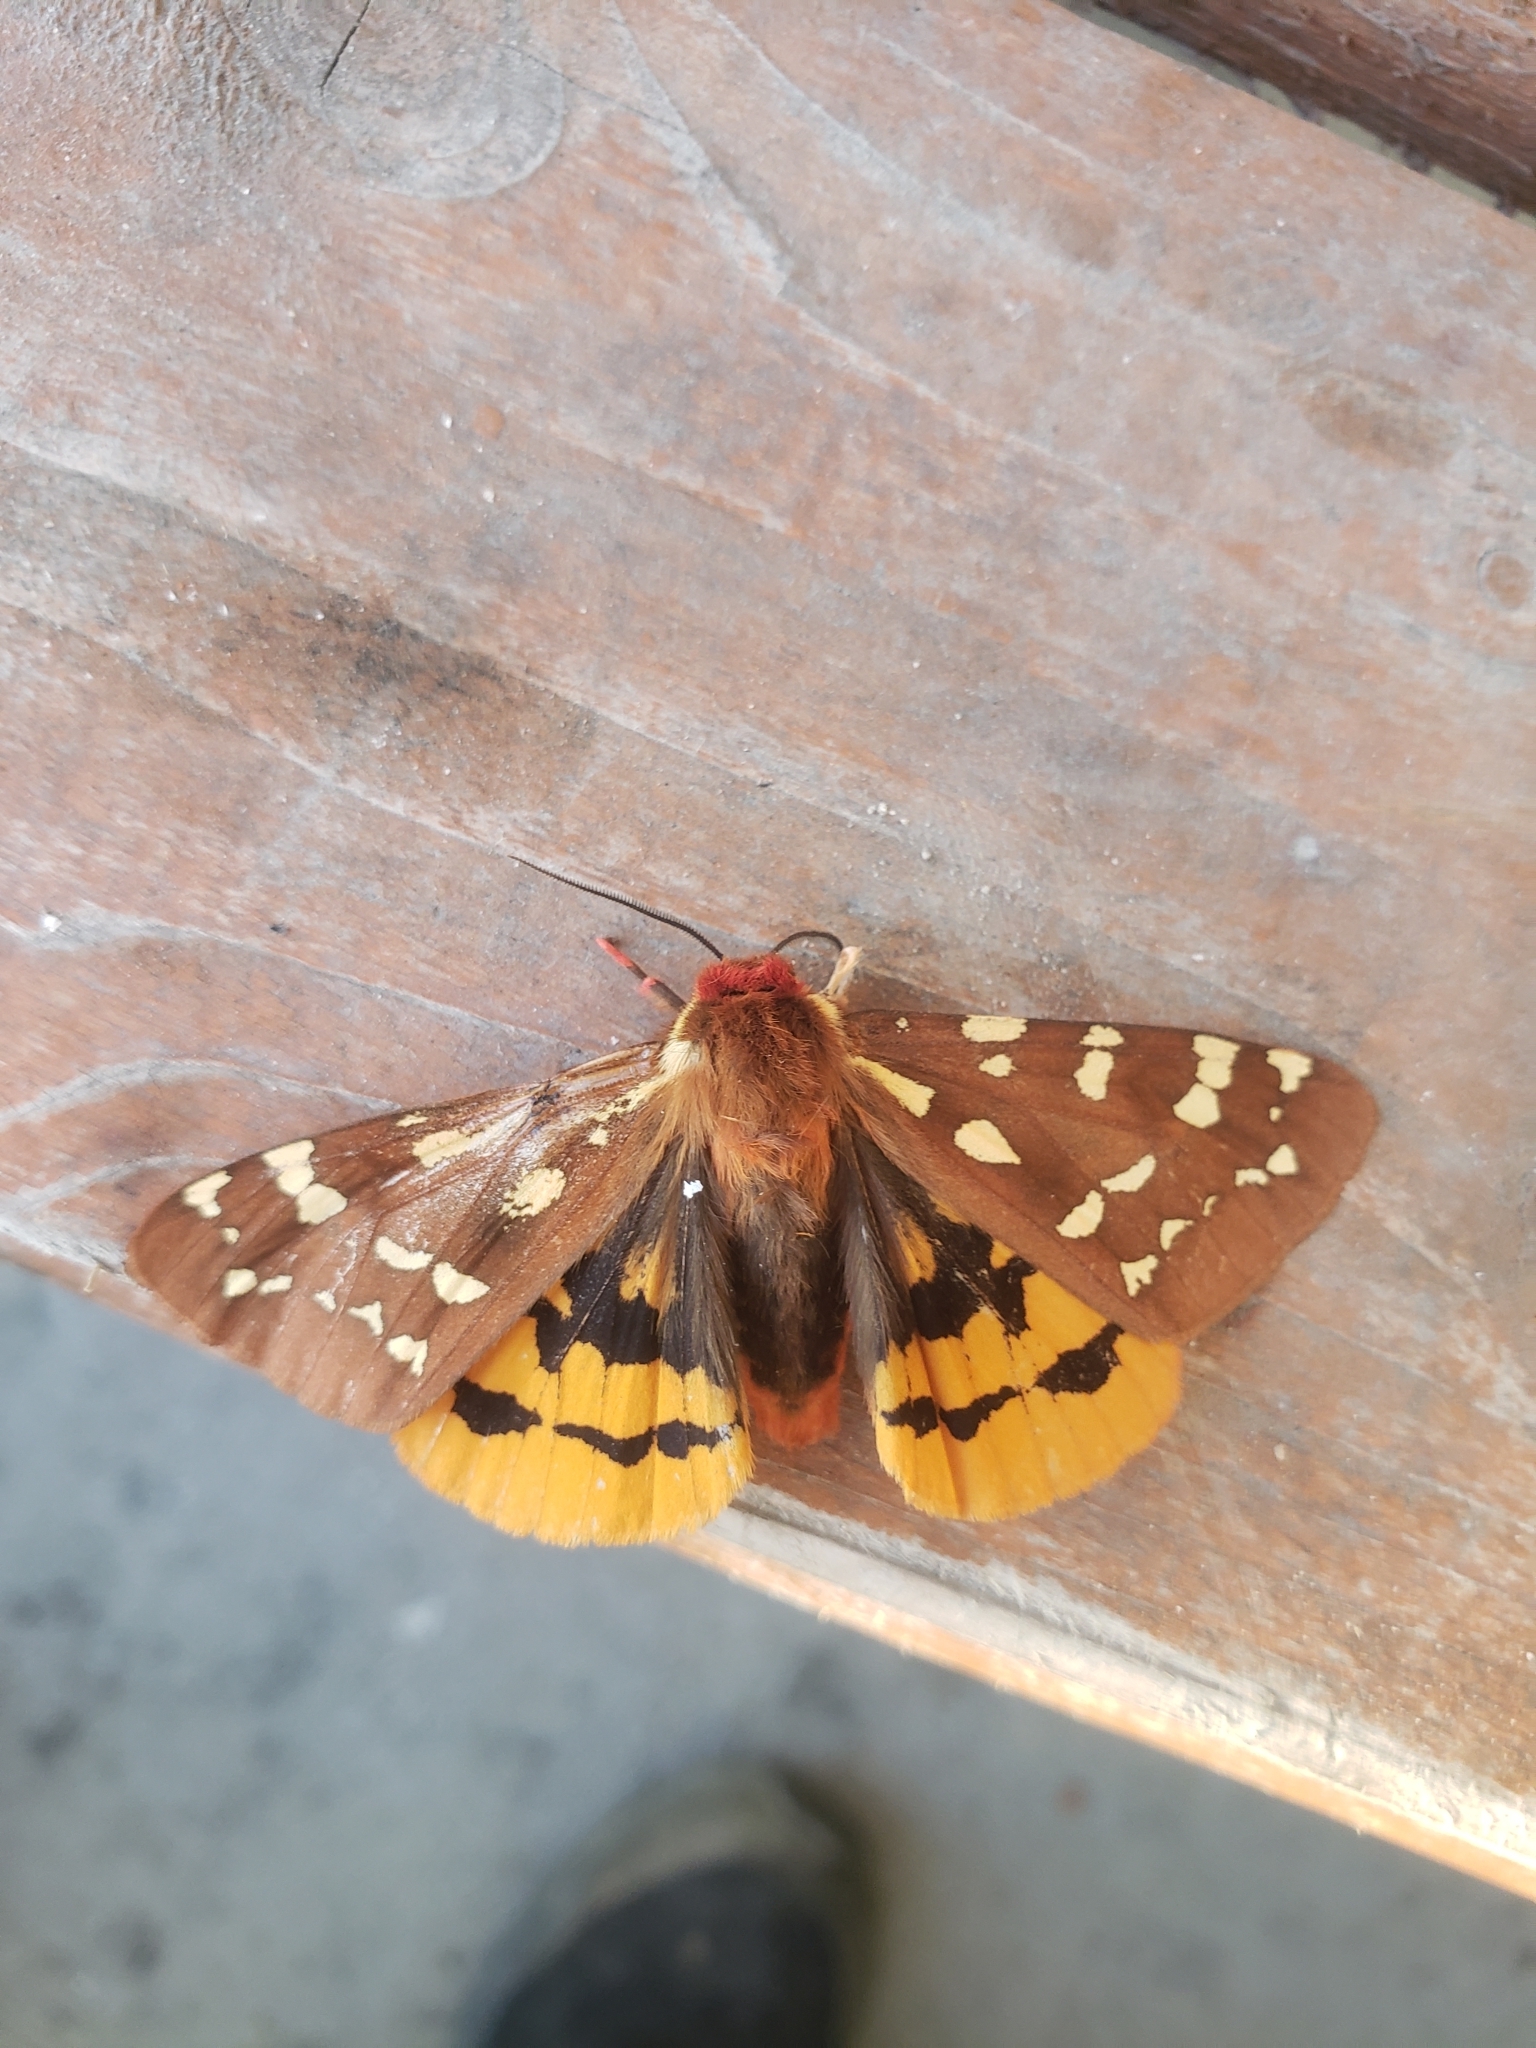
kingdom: Animalia
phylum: Arthropoda
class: Insecta
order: Lepidoptera
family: Erebidae
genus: Arctia
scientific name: Arctia parthenos
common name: St. lawrence tiger moth
